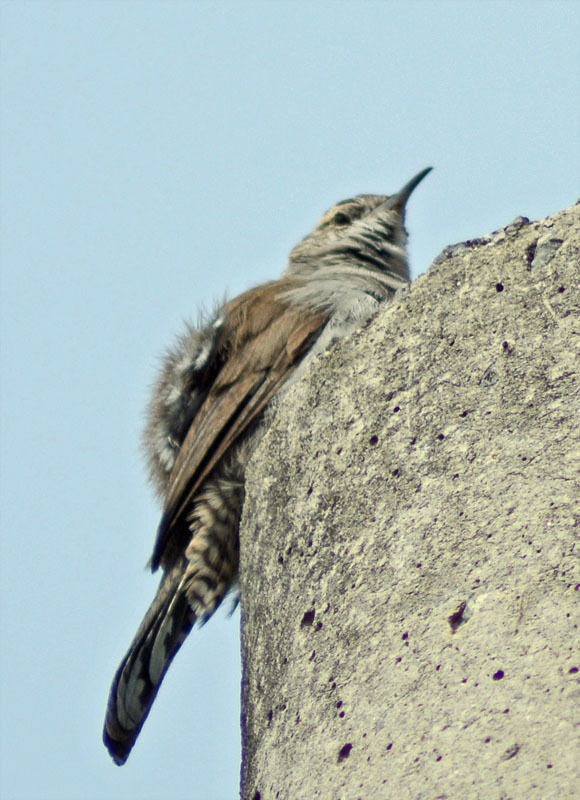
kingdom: Animalia
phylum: Chordata
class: Aves
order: Passeriformes
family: Troglodytidae
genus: Thryomanes
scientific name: Thryomanes bewickii
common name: Bewick's wren
